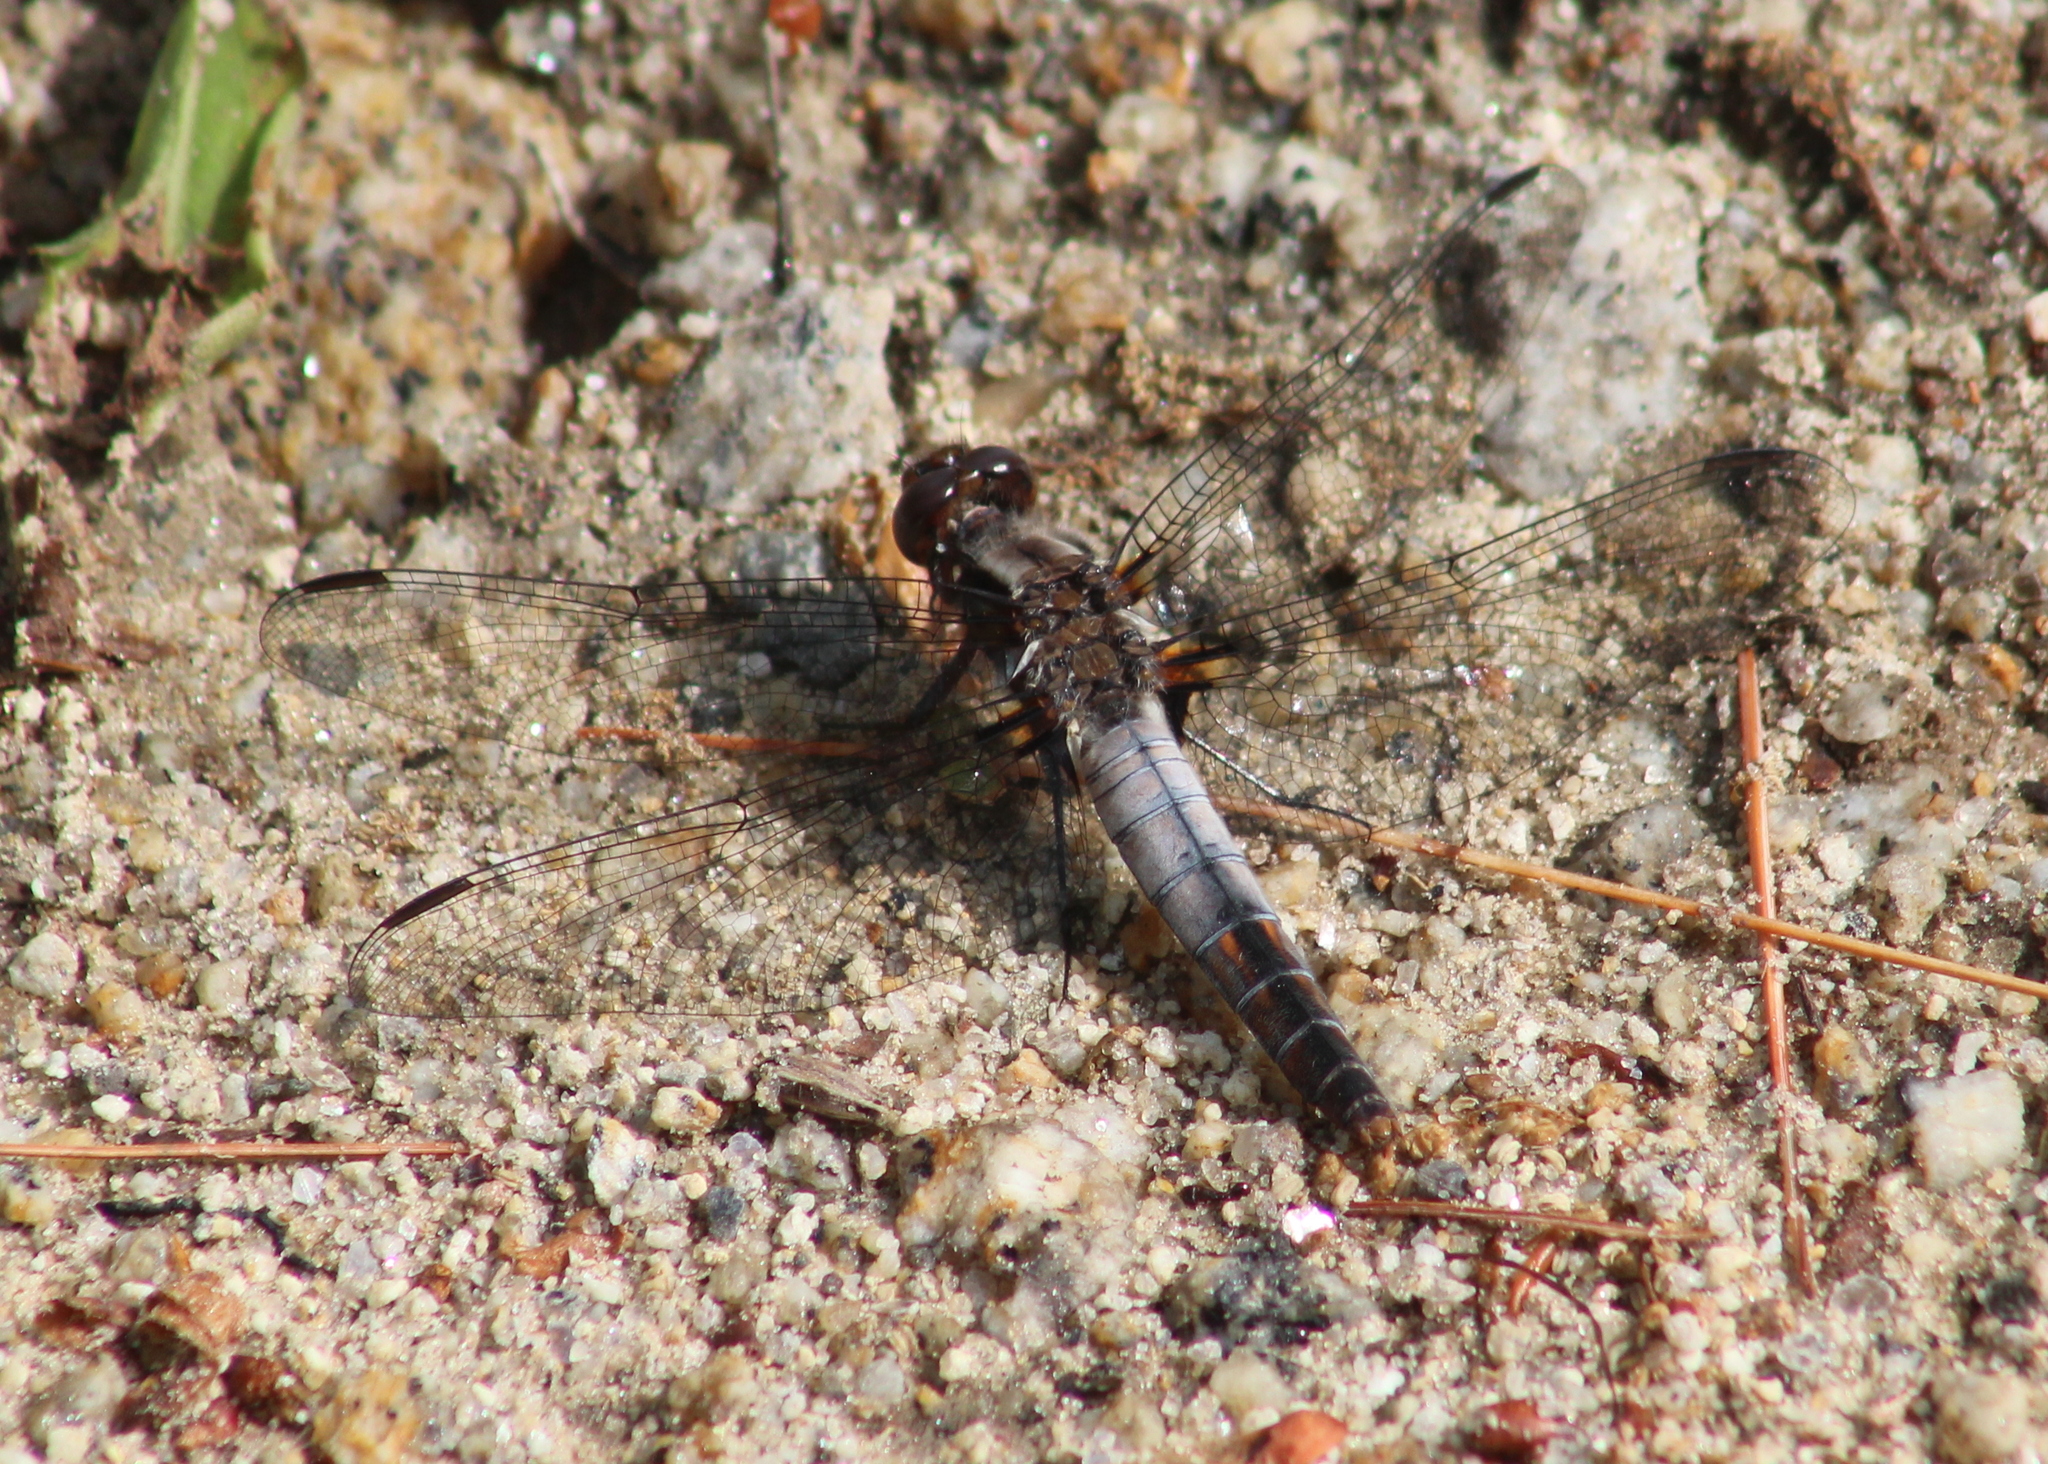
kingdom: Animalia
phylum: Arthropoda
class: Insecta
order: Odonata
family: Libellulidae
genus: Ladona
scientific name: Ladona julia
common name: Chalk-fronted corporal
